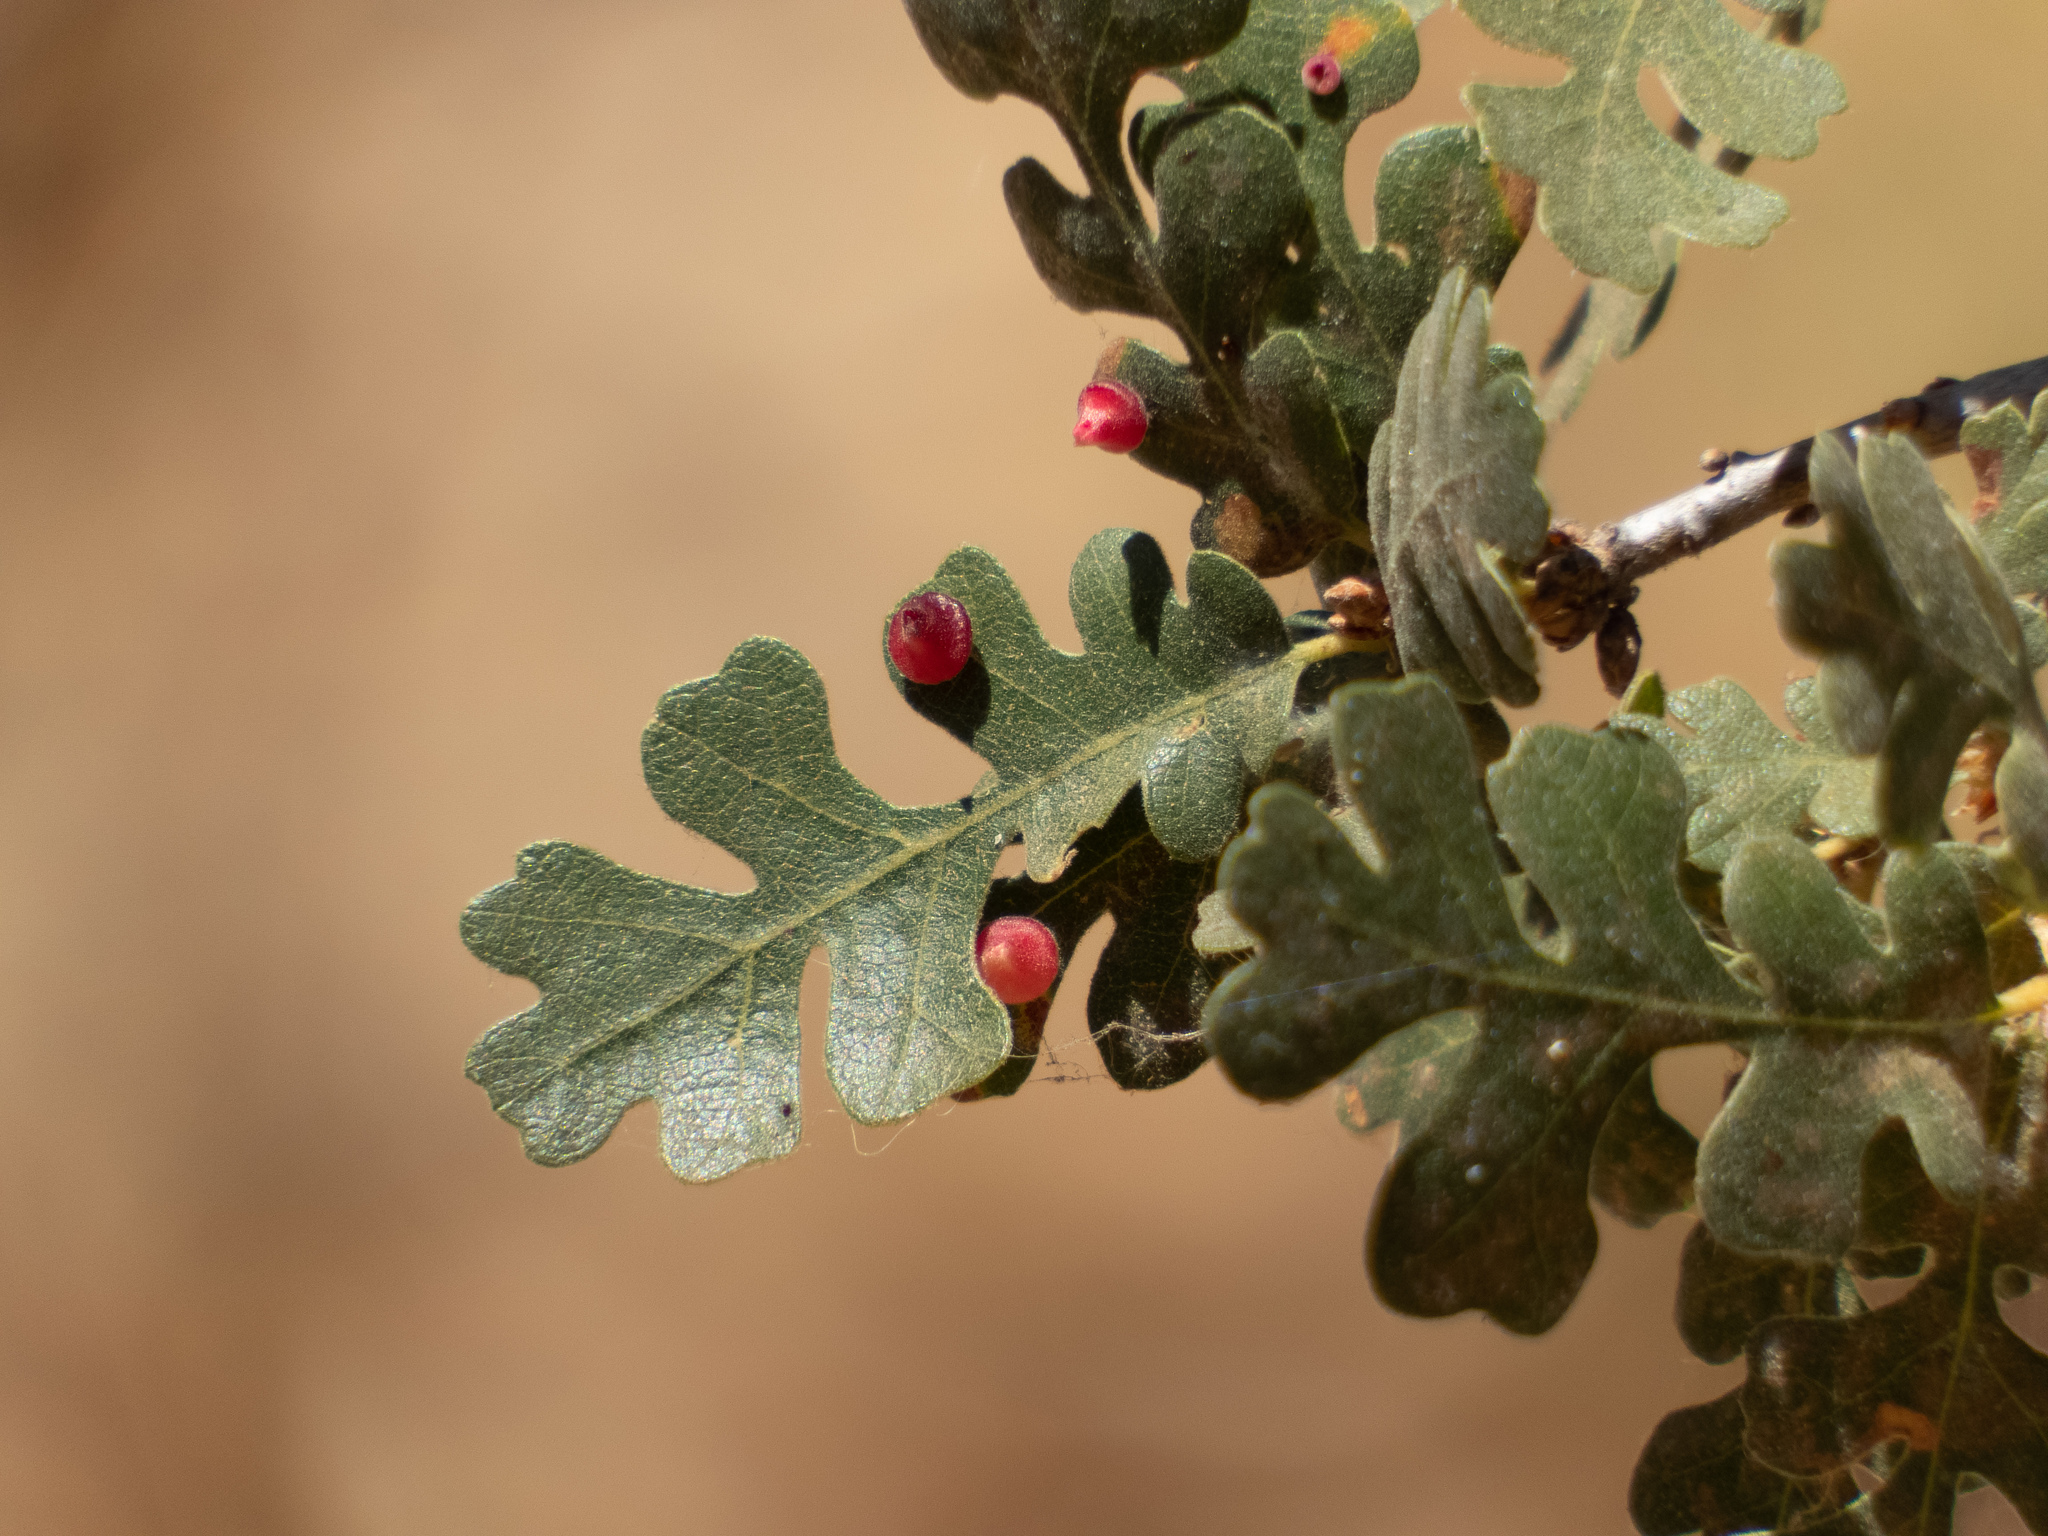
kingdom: Animalia
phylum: Arthropoda
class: Insecta
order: Hymenoptera
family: Cynipidae
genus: Andricus
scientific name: Andricus
